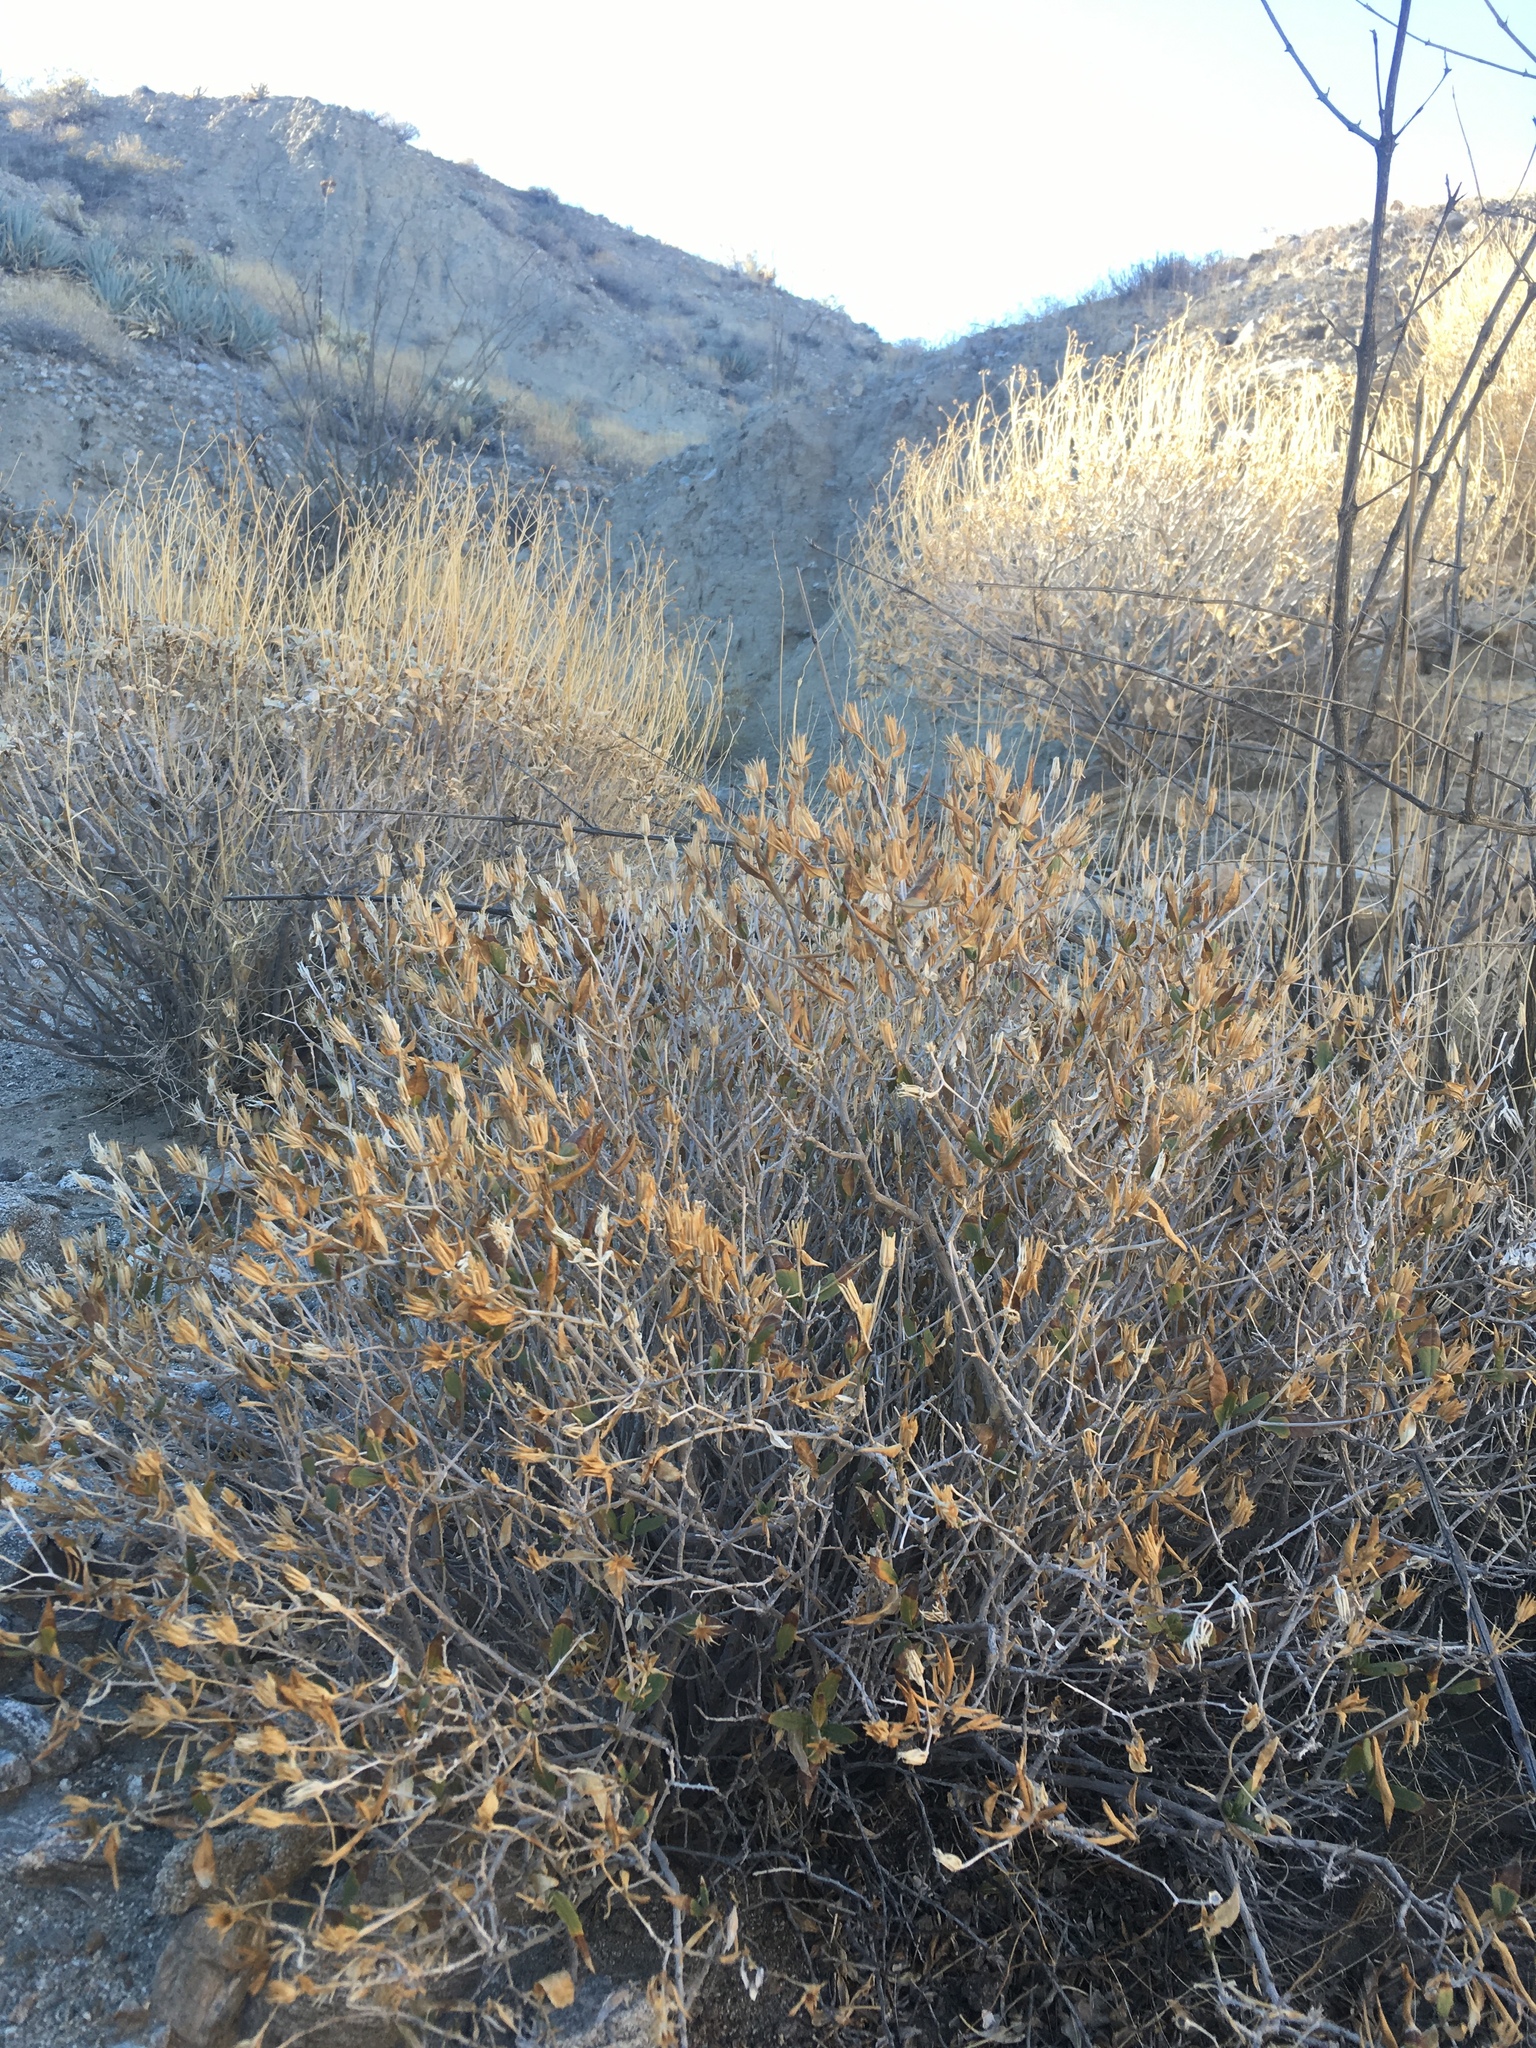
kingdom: Plantae
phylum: Tracheophyta
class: Magnoliopsida
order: Asterales
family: Asteraceae
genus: Trixis
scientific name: Trixis californica
